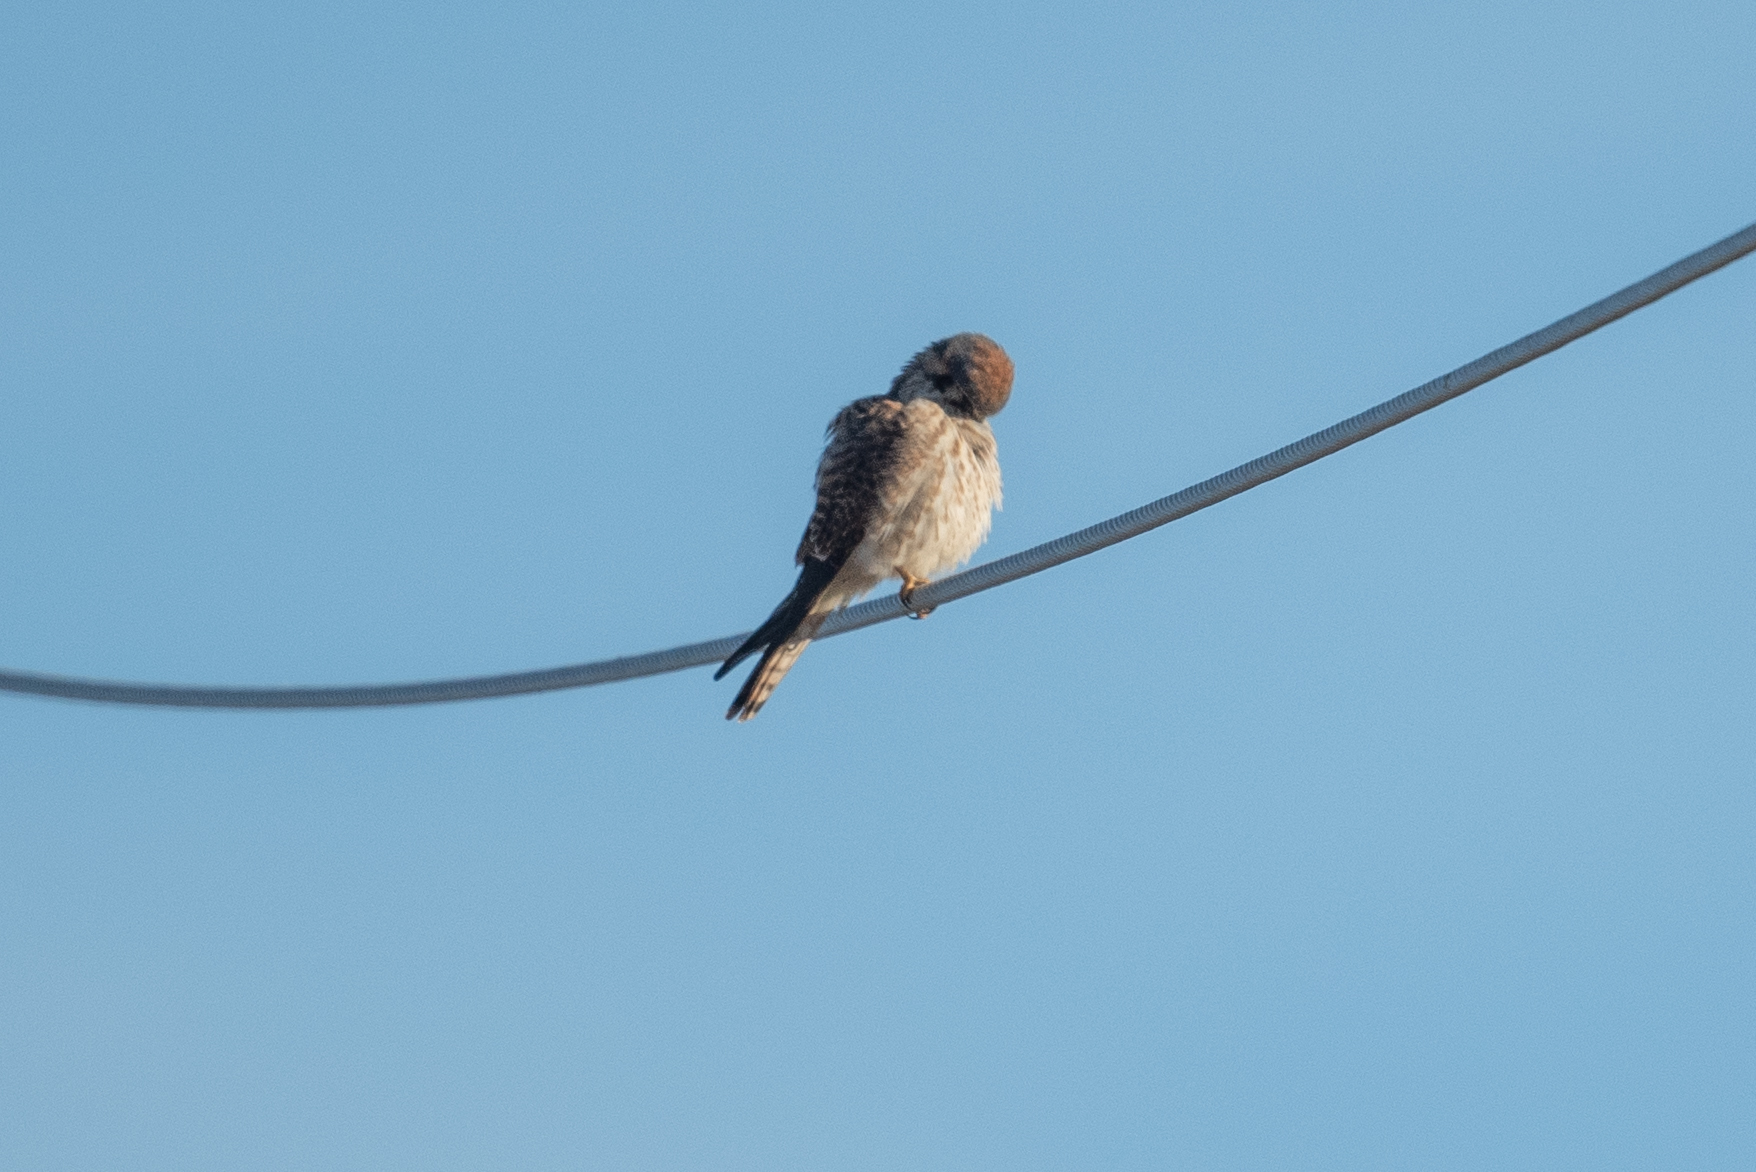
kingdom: Animalia
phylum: Chordata
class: Aves
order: Falconiformes
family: Falconidae
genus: Falco
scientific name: Falco sparverius
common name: American kestrel
